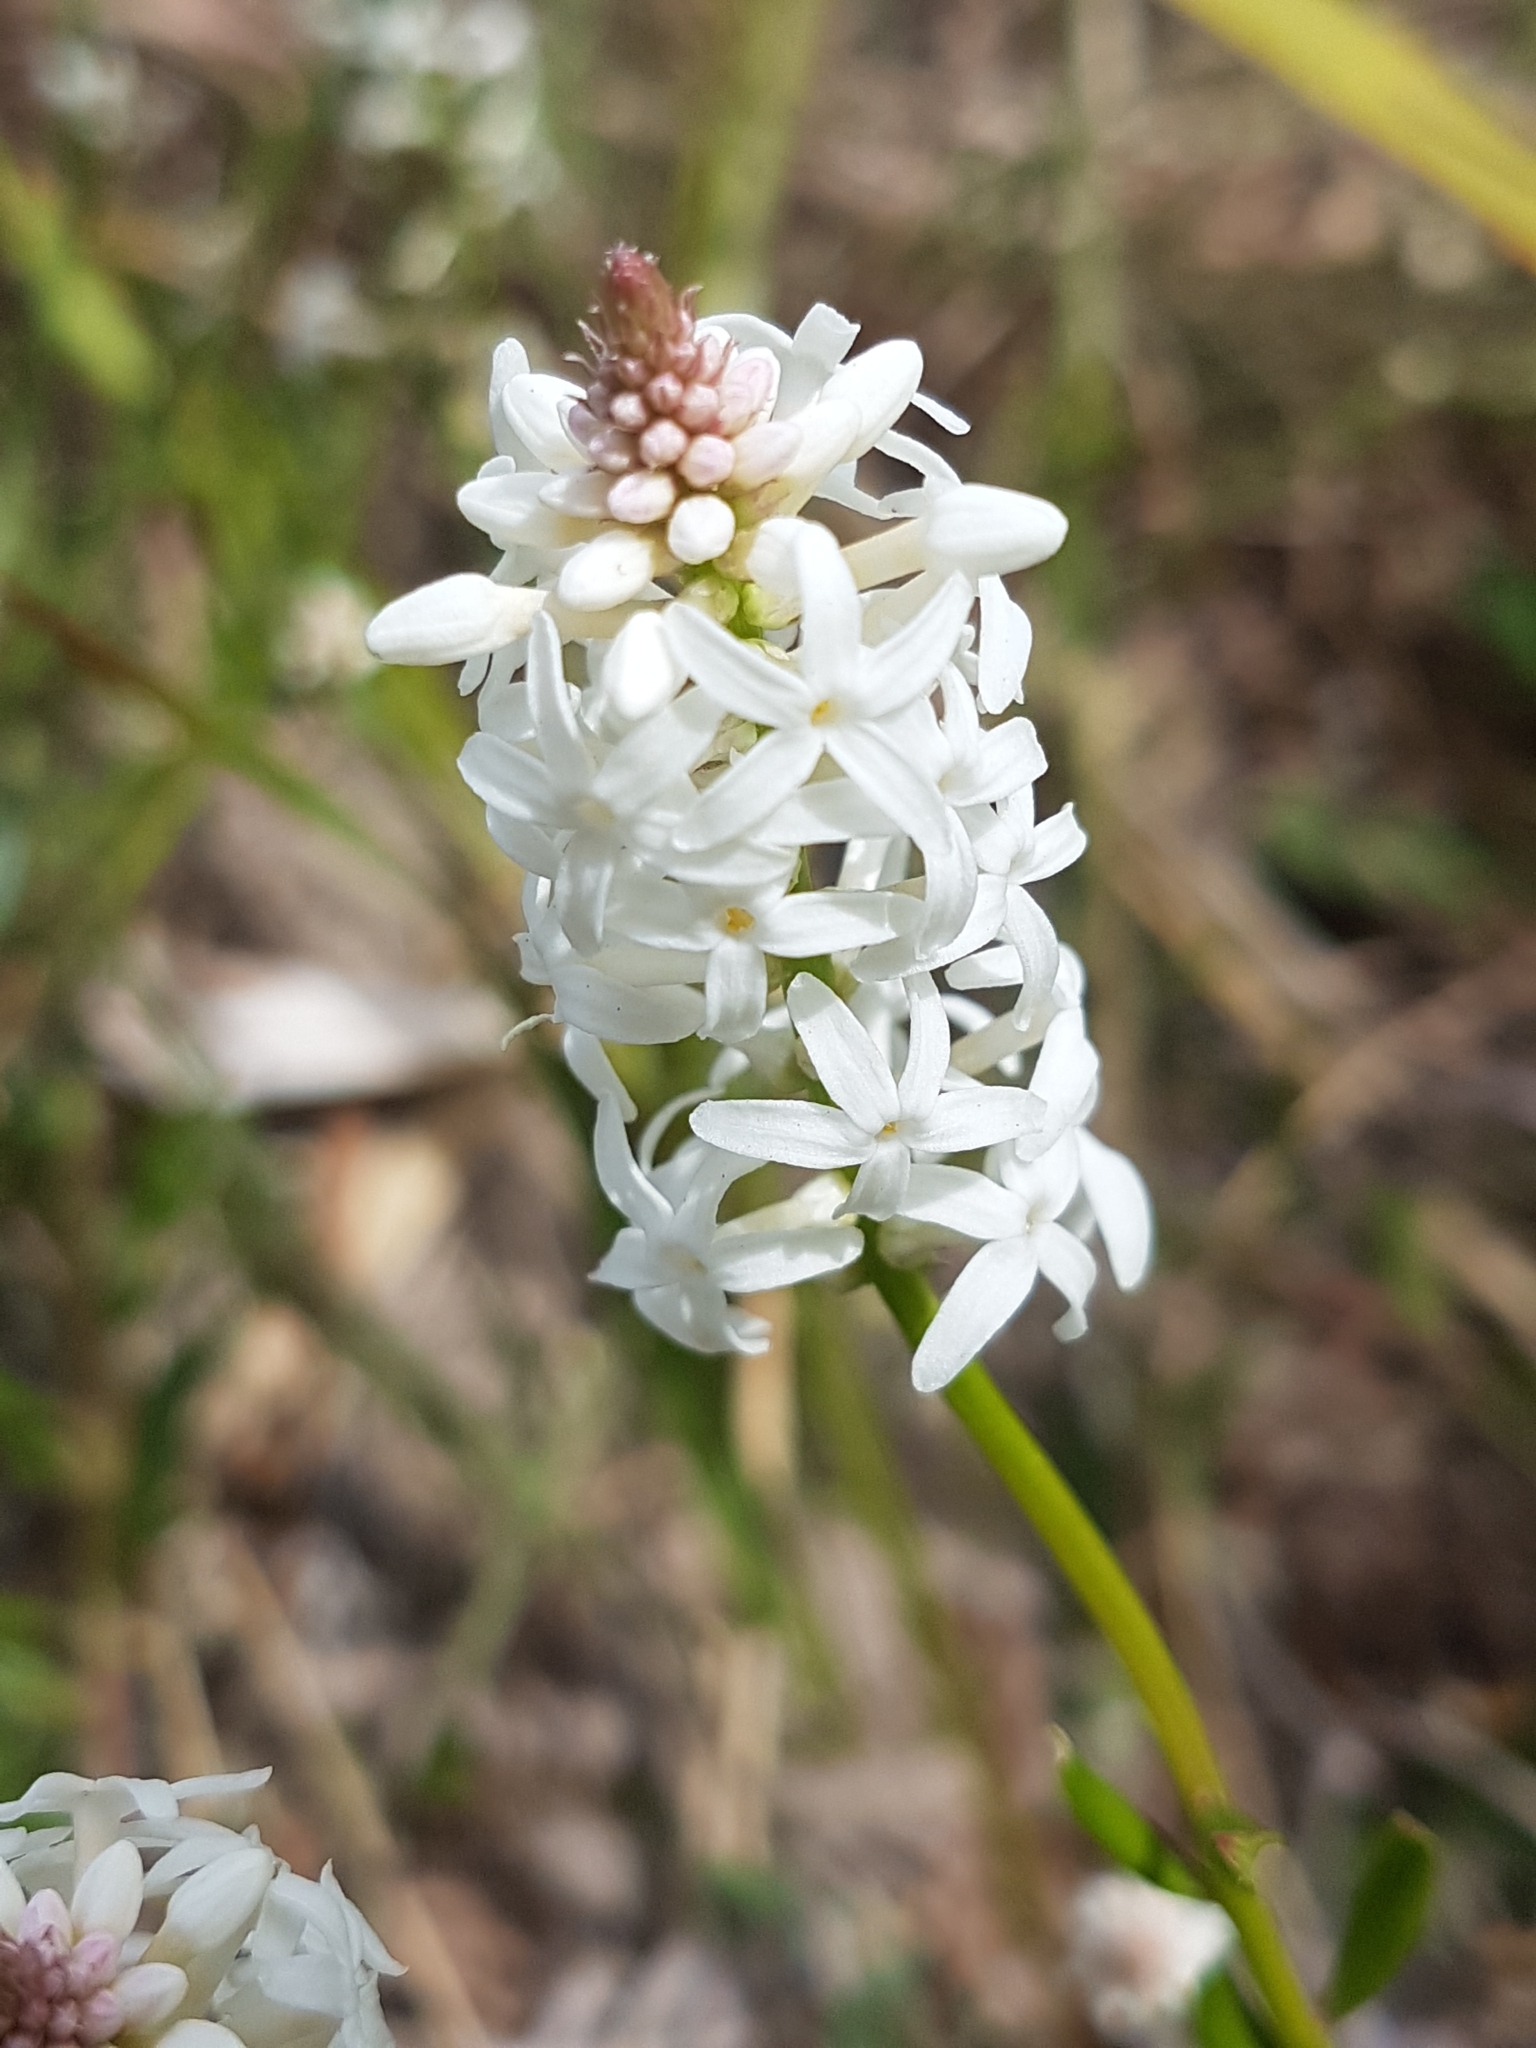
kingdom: Plantae
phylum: Tracheophyta
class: Magnoliopsida
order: Celastrales
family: Celastraceae
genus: Stackhousia
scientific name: Stackhousia monogyna
